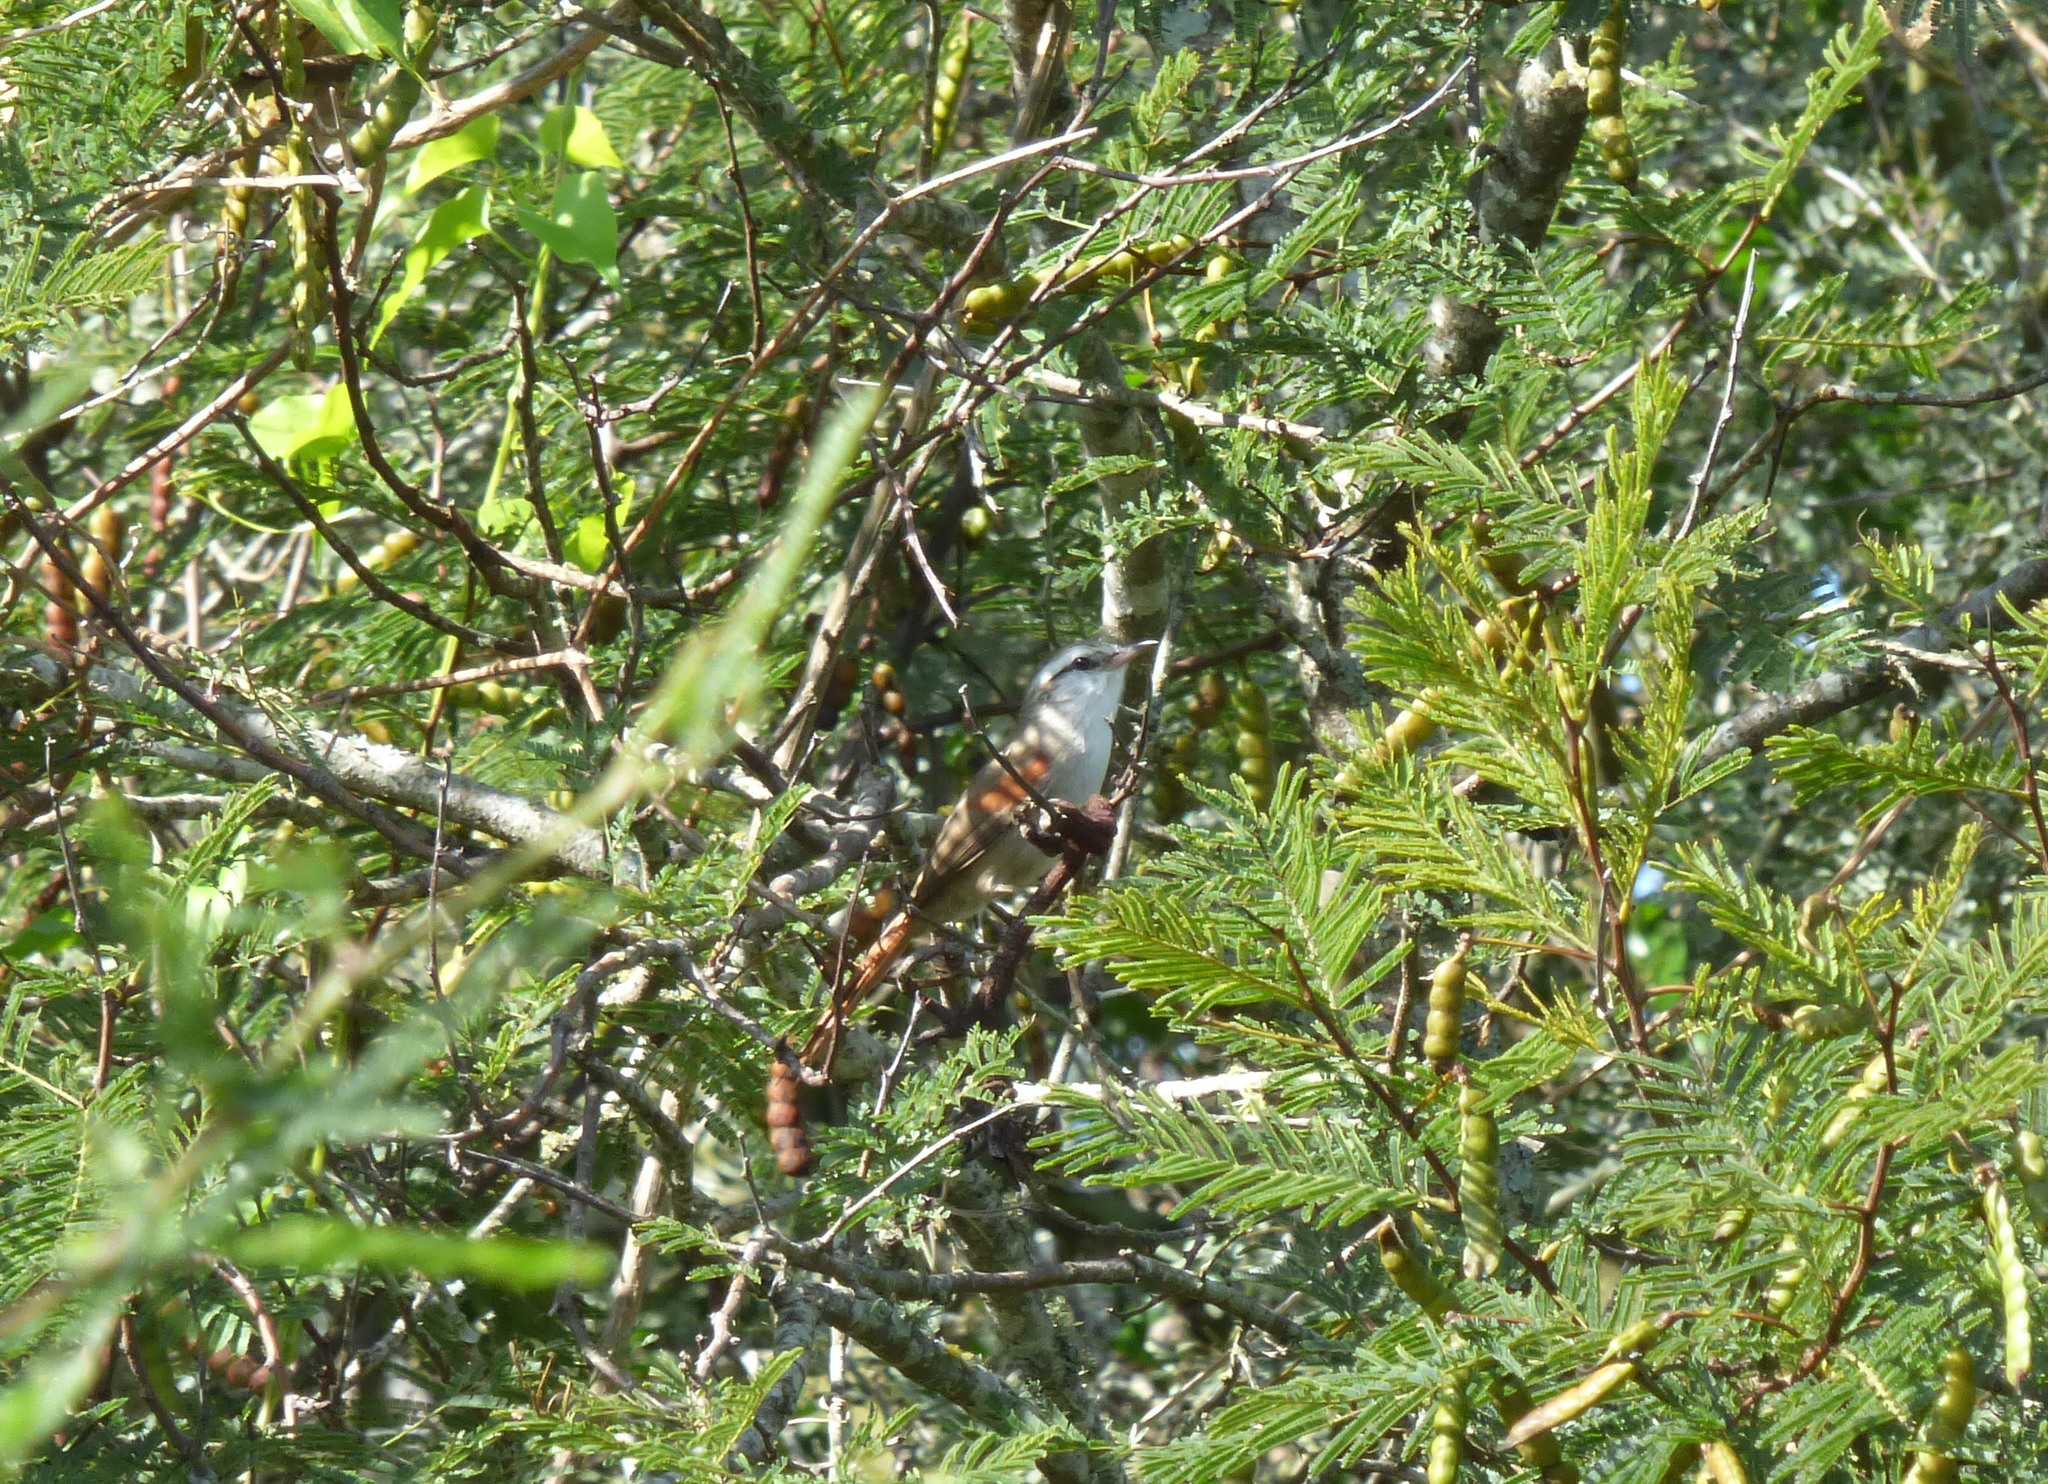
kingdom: Animalia
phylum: Chordata
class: Aves
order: Passeriformes
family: Furnariidae
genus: Cranioleuca
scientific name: Cranioleuca pyrrhophia
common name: Stripe-crowned spinetail
